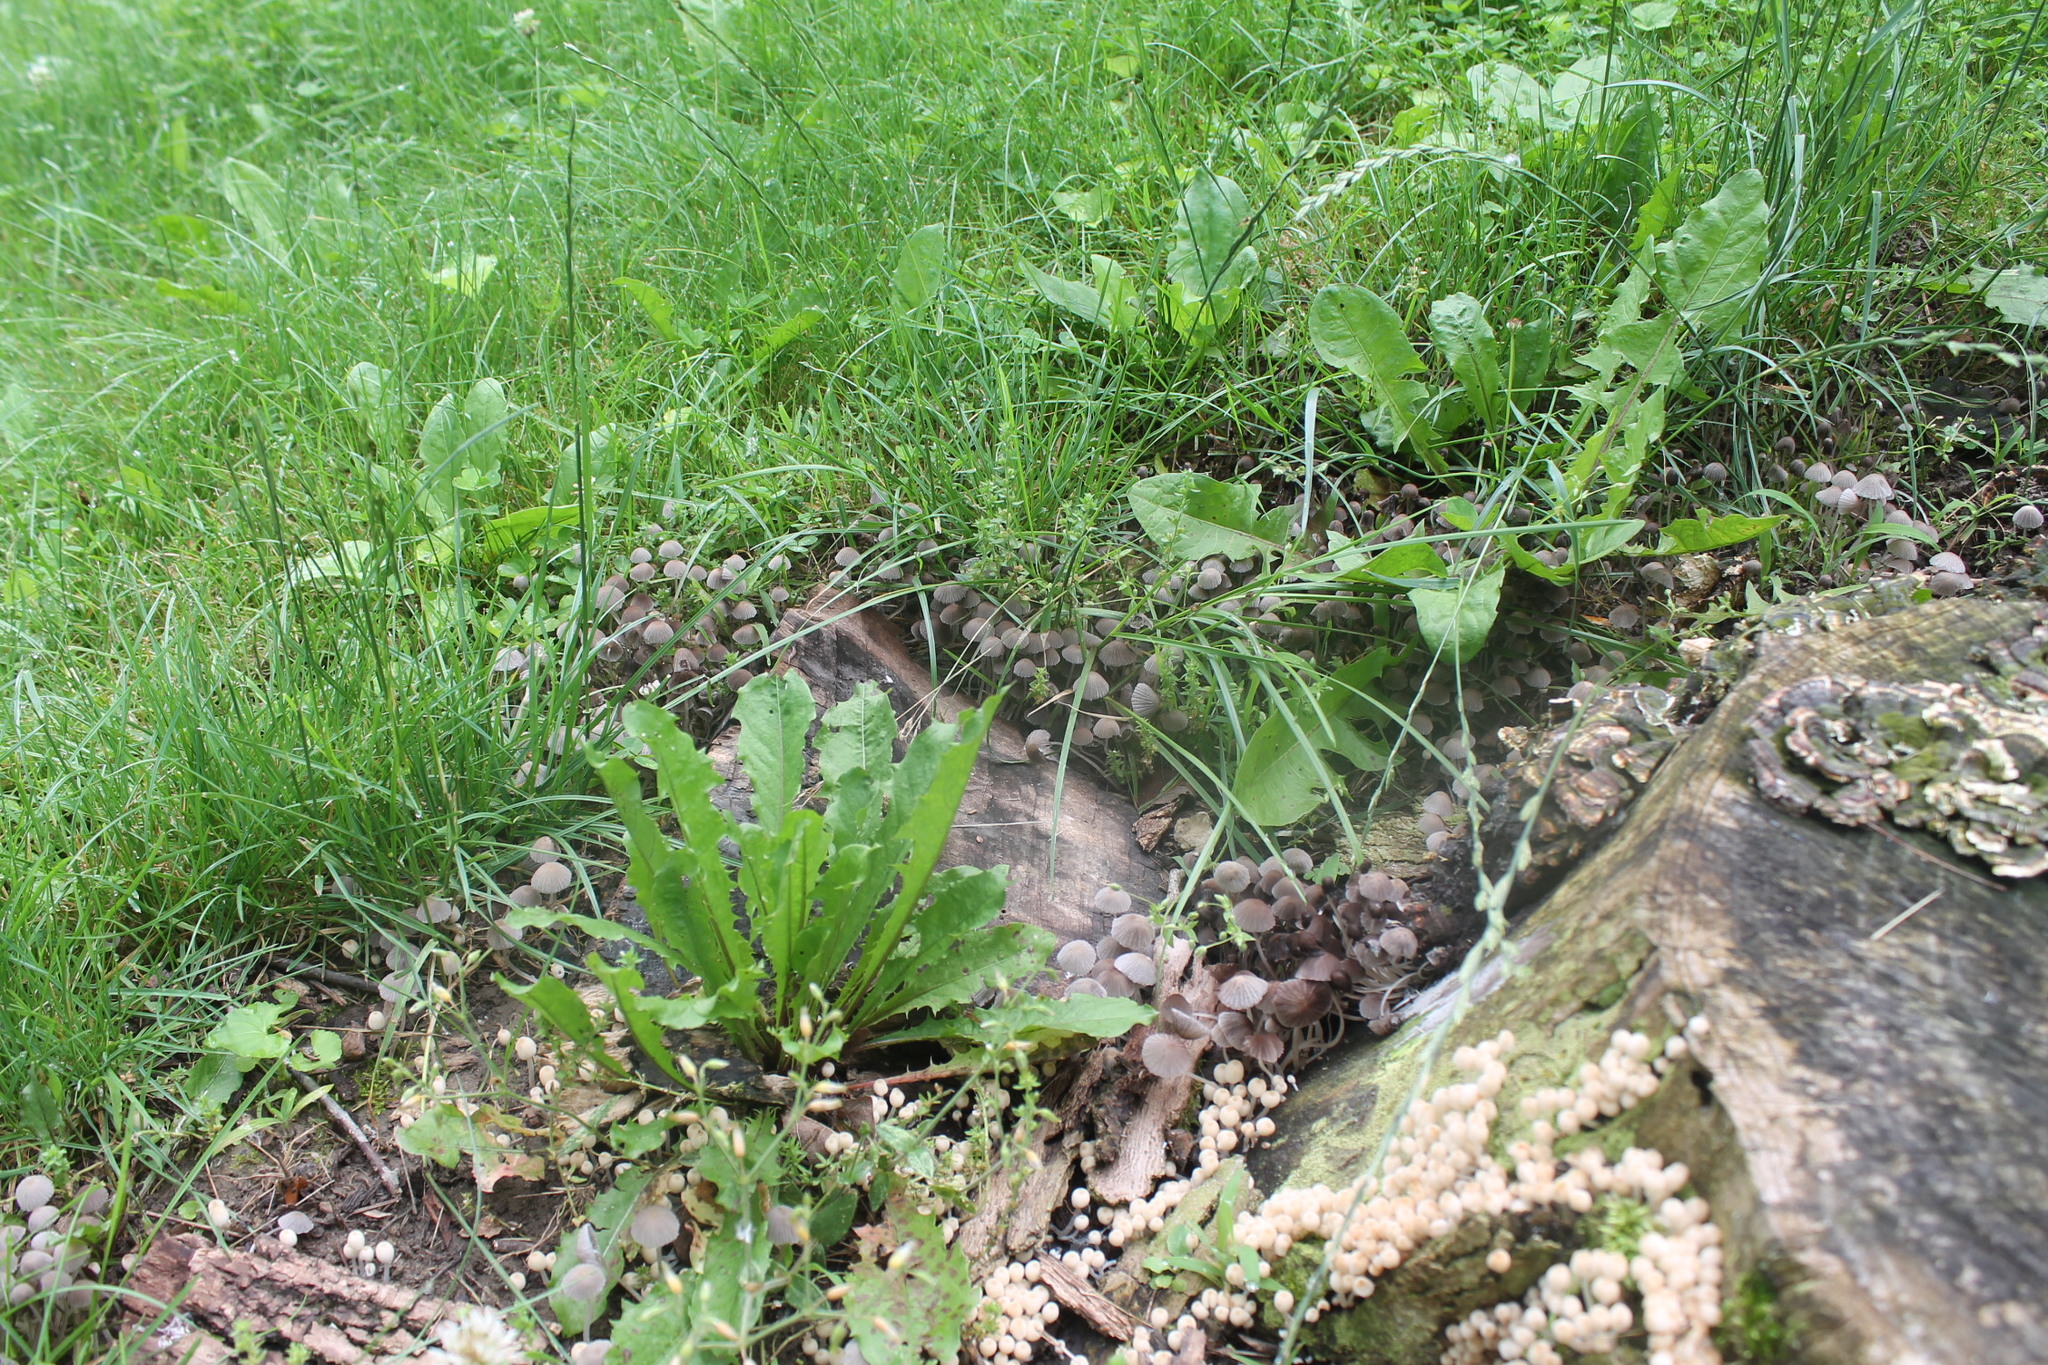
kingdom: Fungi
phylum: Basidiomycota
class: Agaricomycetes
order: Agaricales
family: Psathyrellaceae
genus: Coprinellus
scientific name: Coprinellus disseminatus
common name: Fairies' bonnets
